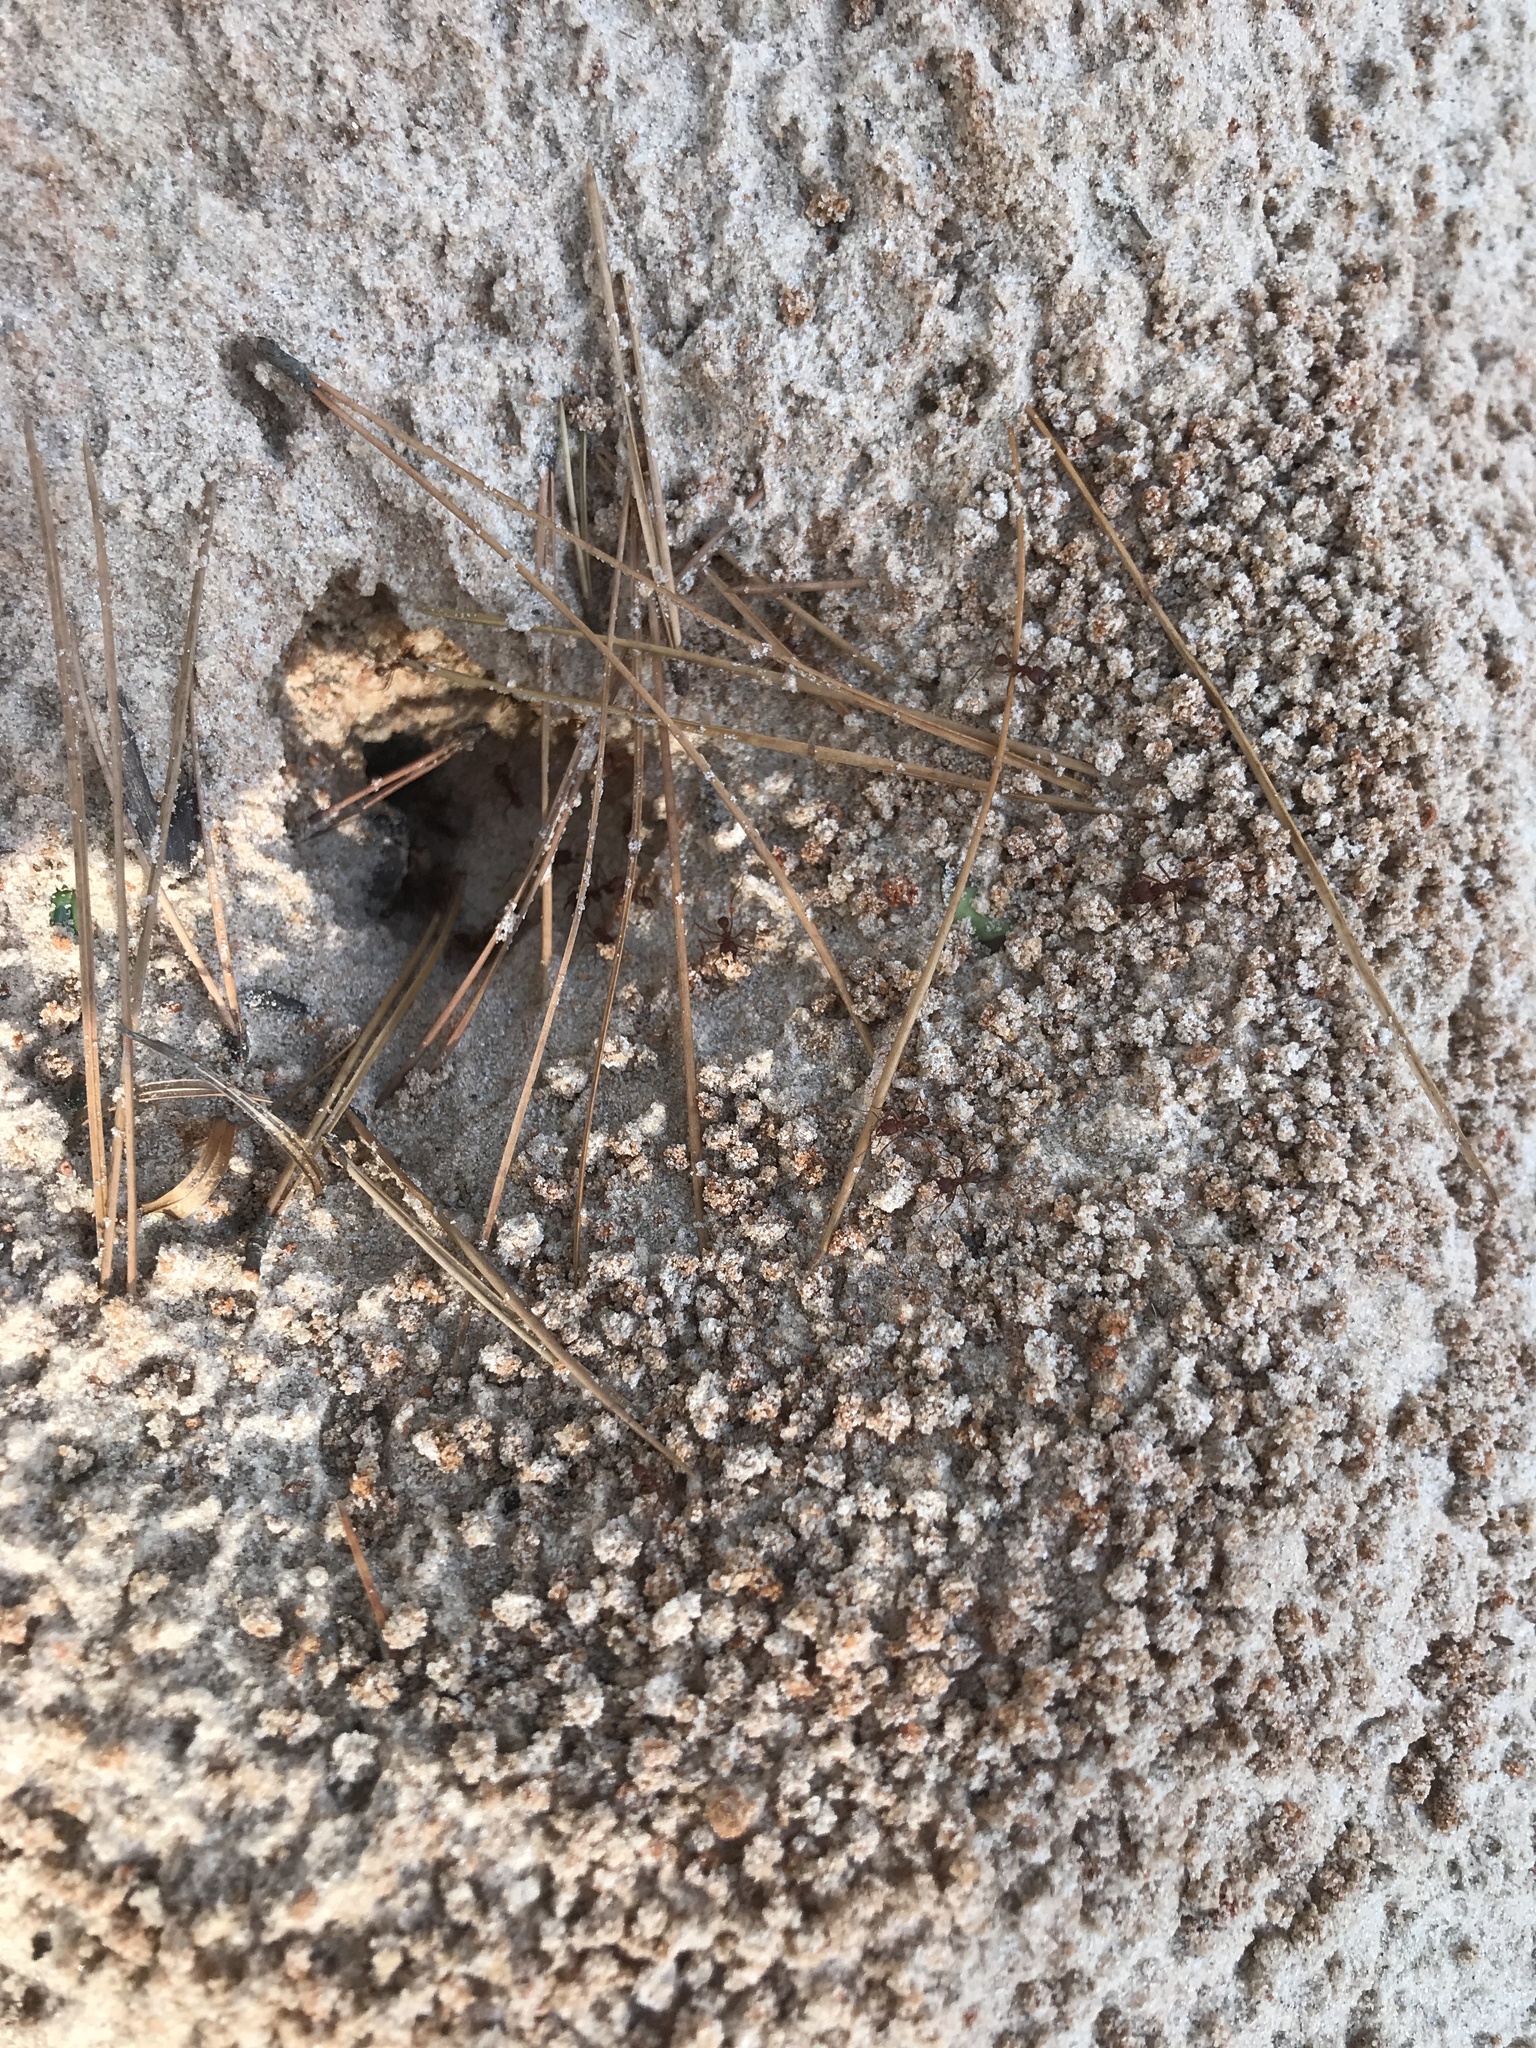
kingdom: Animalia
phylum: Arthropoda
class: Insecta
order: Hymenoptera
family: Formicidae
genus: Atta
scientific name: Atta texana
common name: Texas leafcutting ant
